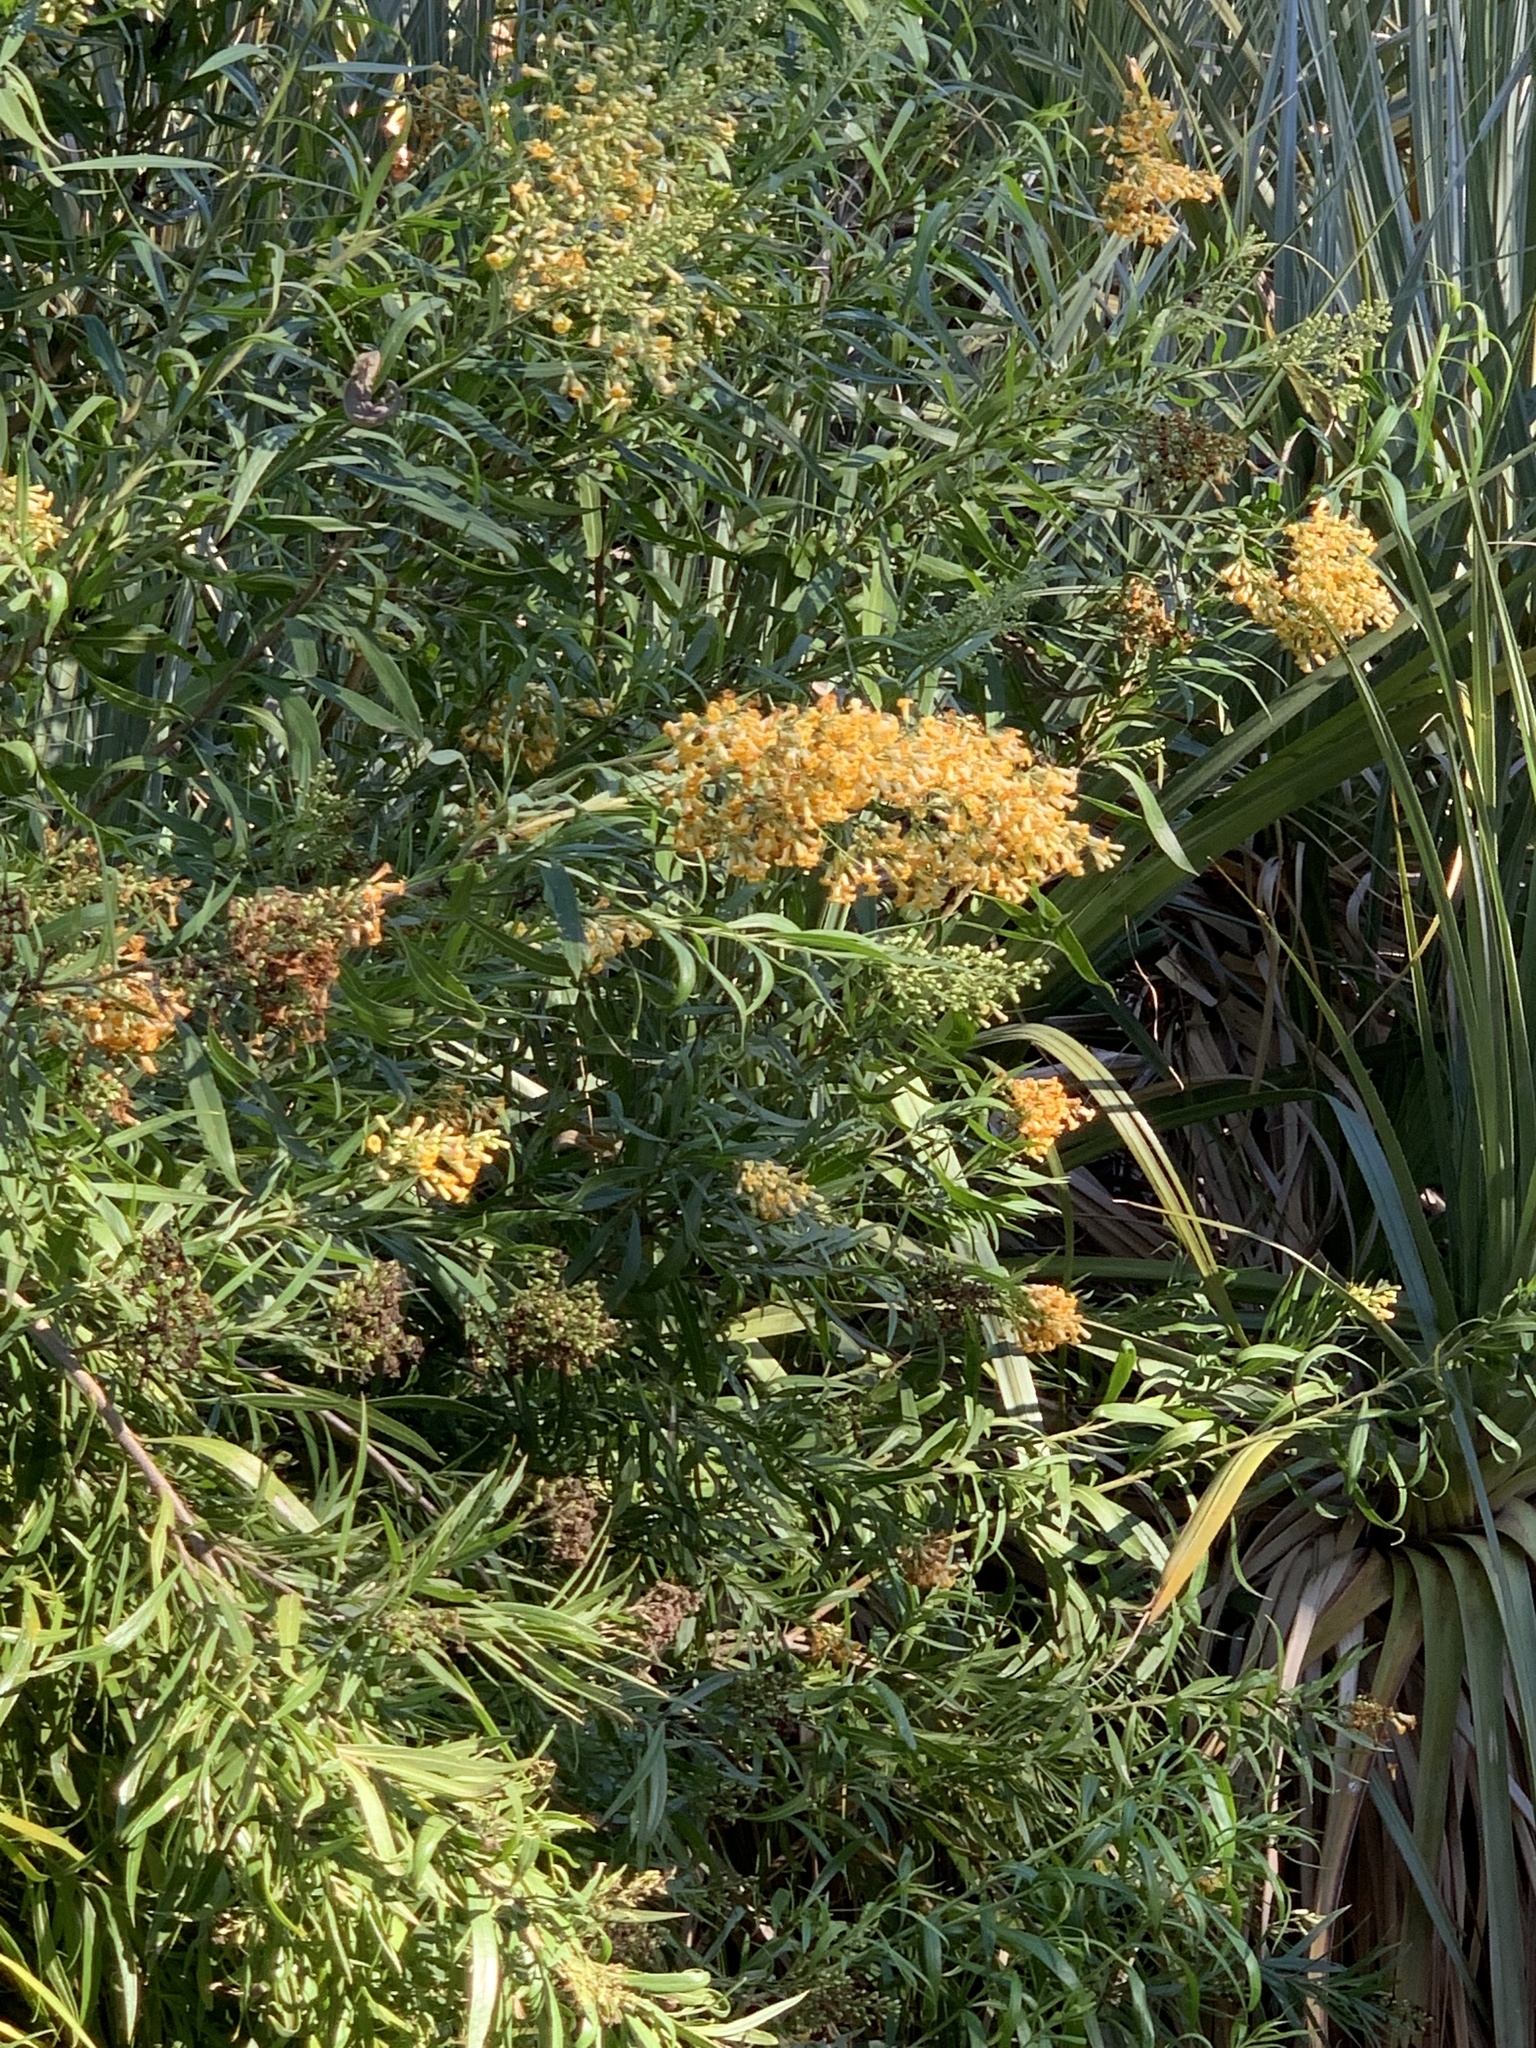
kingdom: Plantae
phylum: Tracheophyta
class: Magnoliopsida
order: Lamiales
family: Scrophulariaceae
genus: Freylinia
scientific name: Freylinia lanceolata
